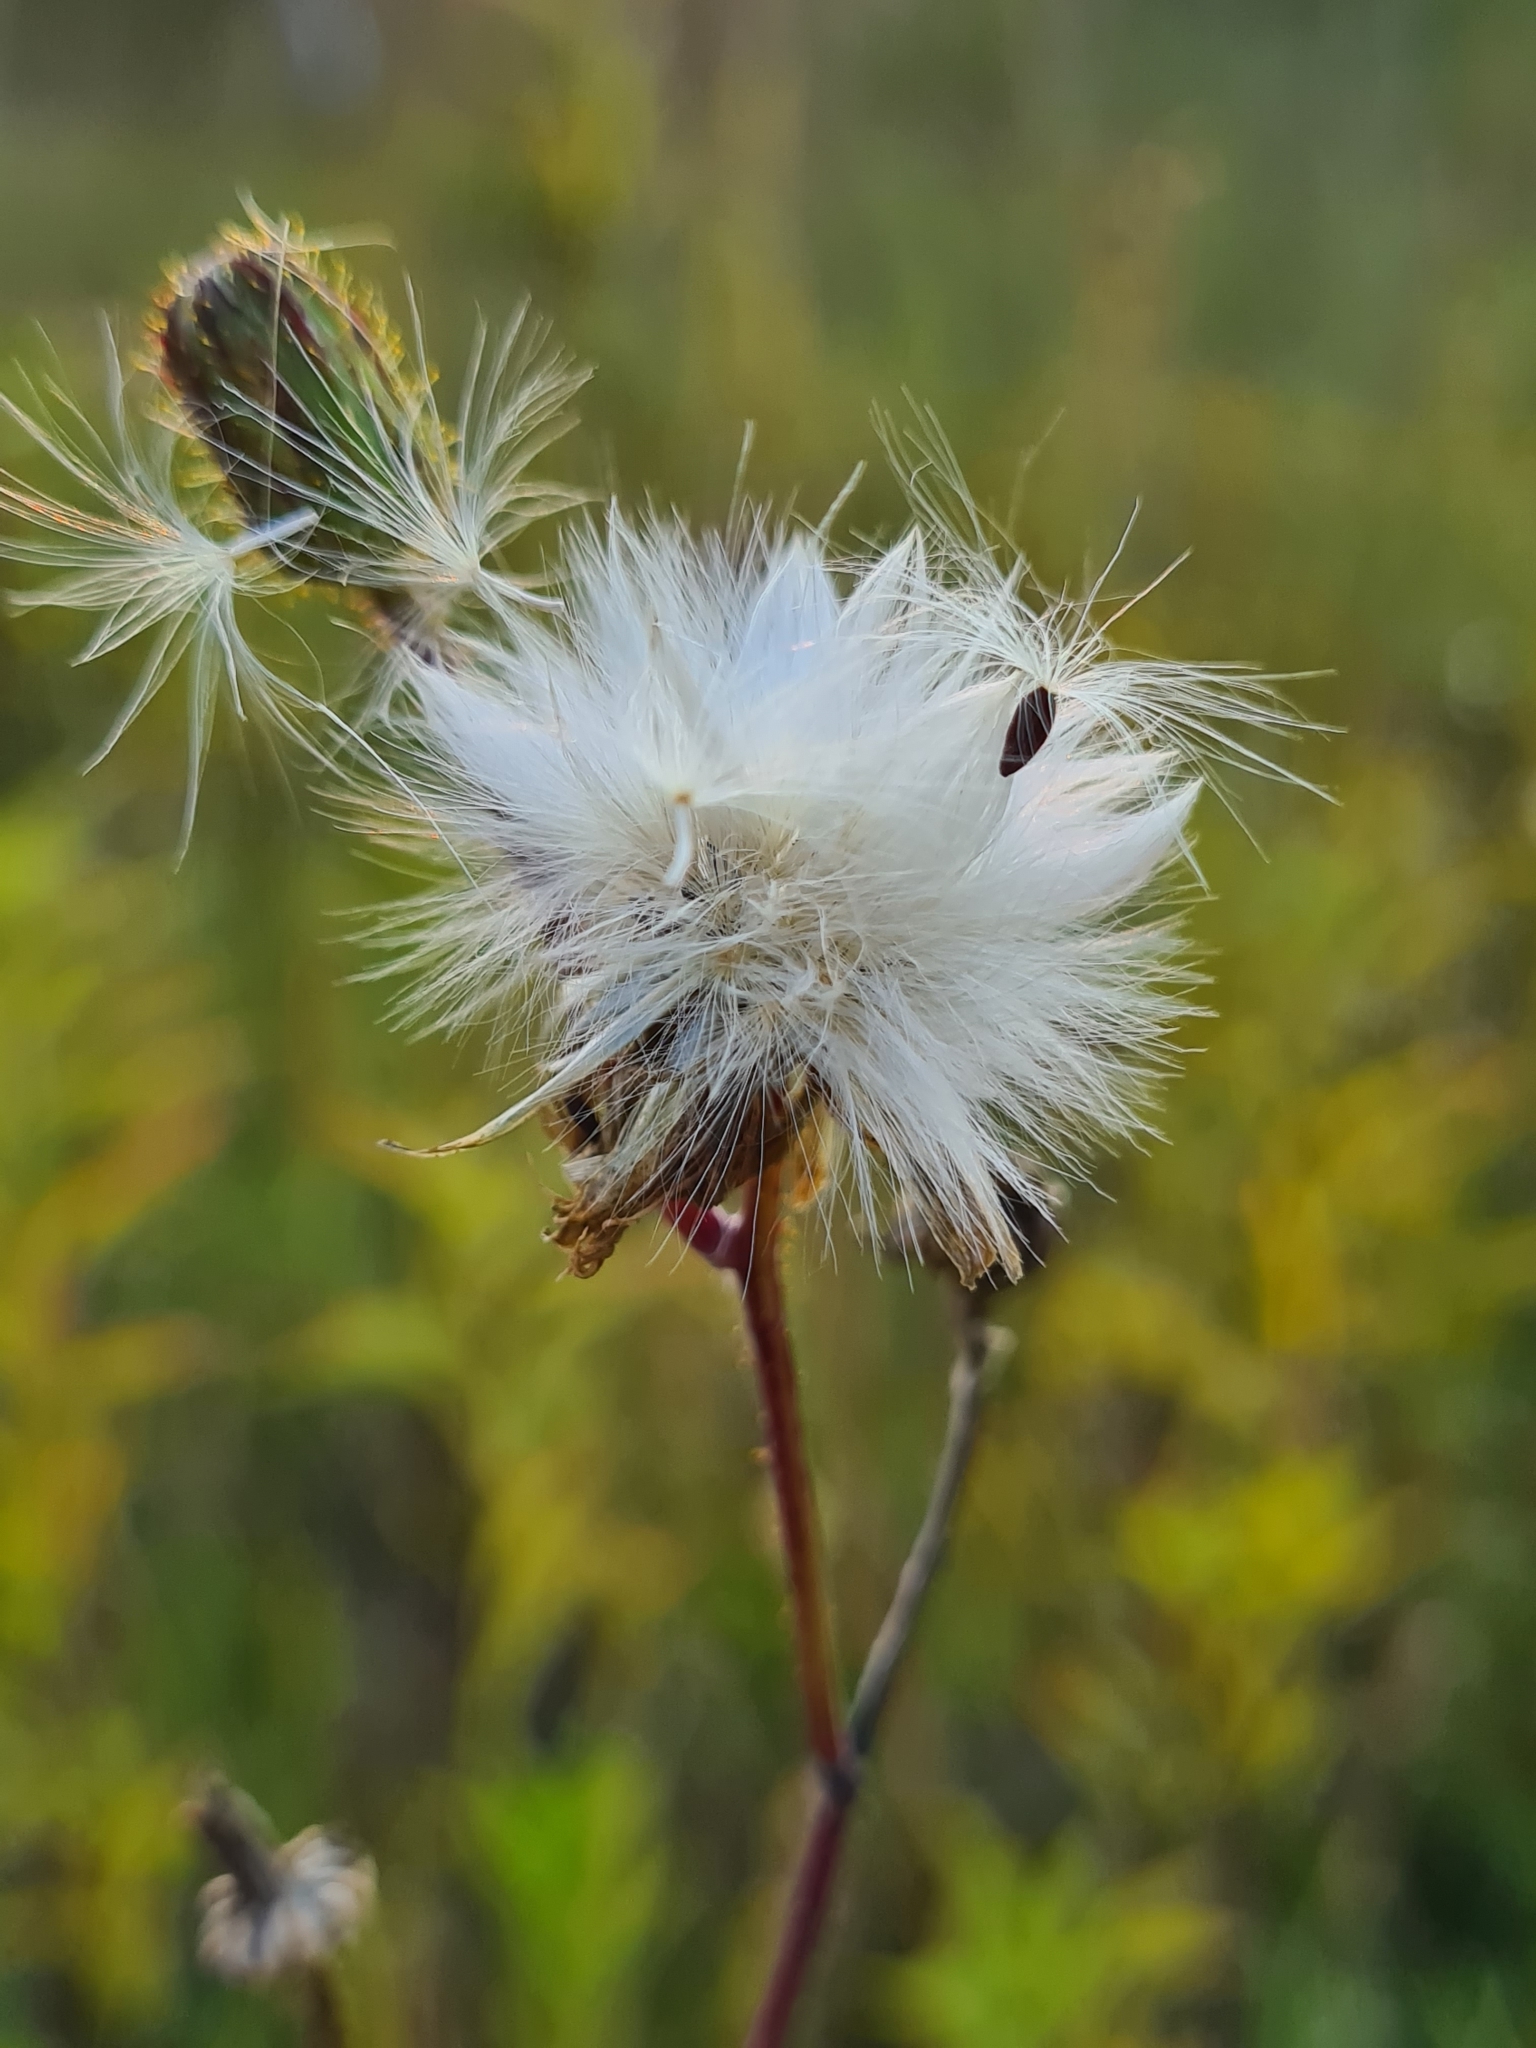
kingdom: Plantae
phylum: Tracheophyta
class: Magnoliopsida
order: Asterales
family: Asteraceae
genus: Sonchus
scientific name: Sonchus arvensis
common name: Perennial sow-thistle
